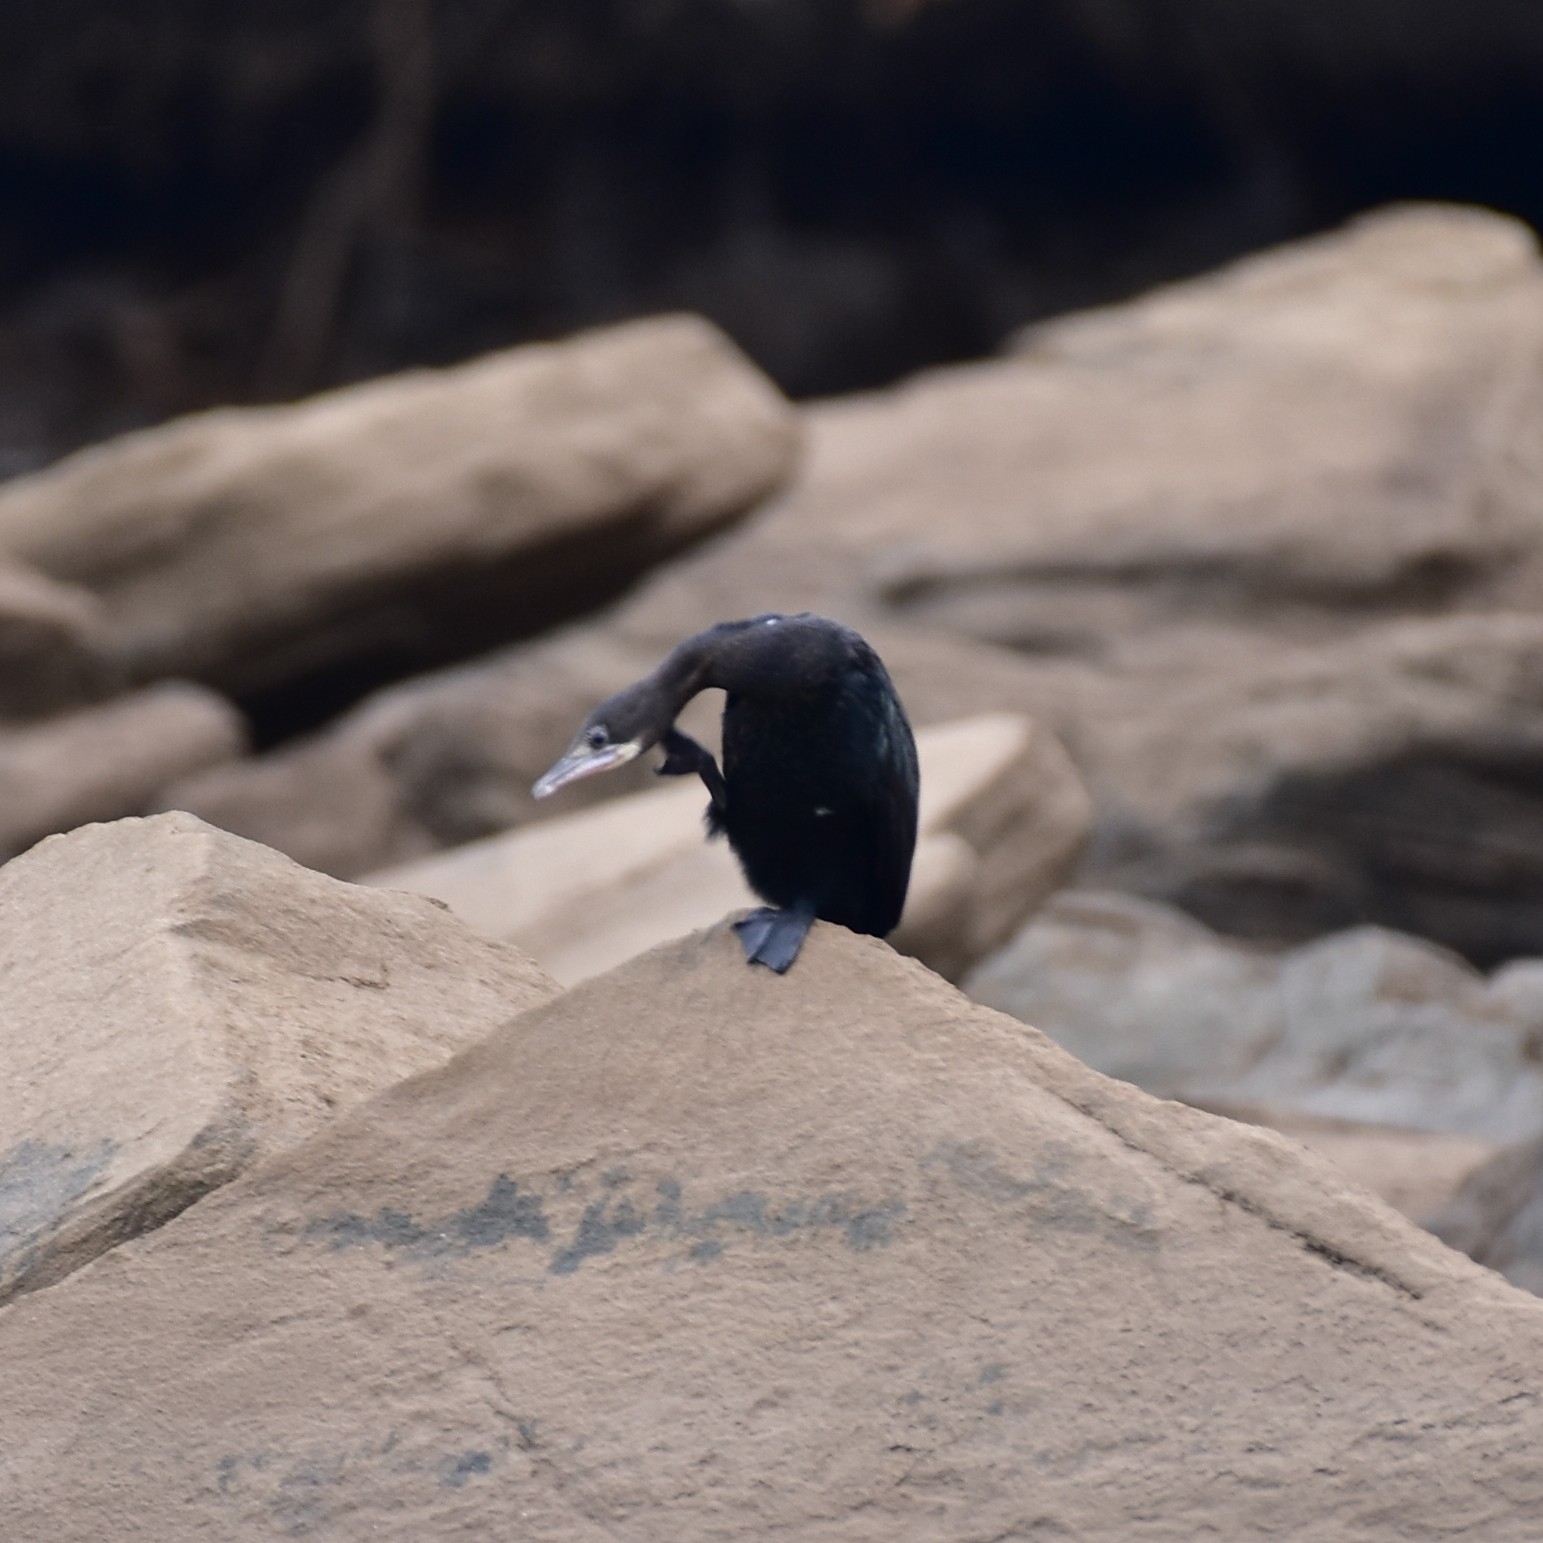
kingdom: Animalia
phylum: Chordata
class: Aves
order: Suliformes
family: Phalacrocoracidae
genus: Microcarbo
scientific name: Microcarbo niger
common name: Little cormorant
